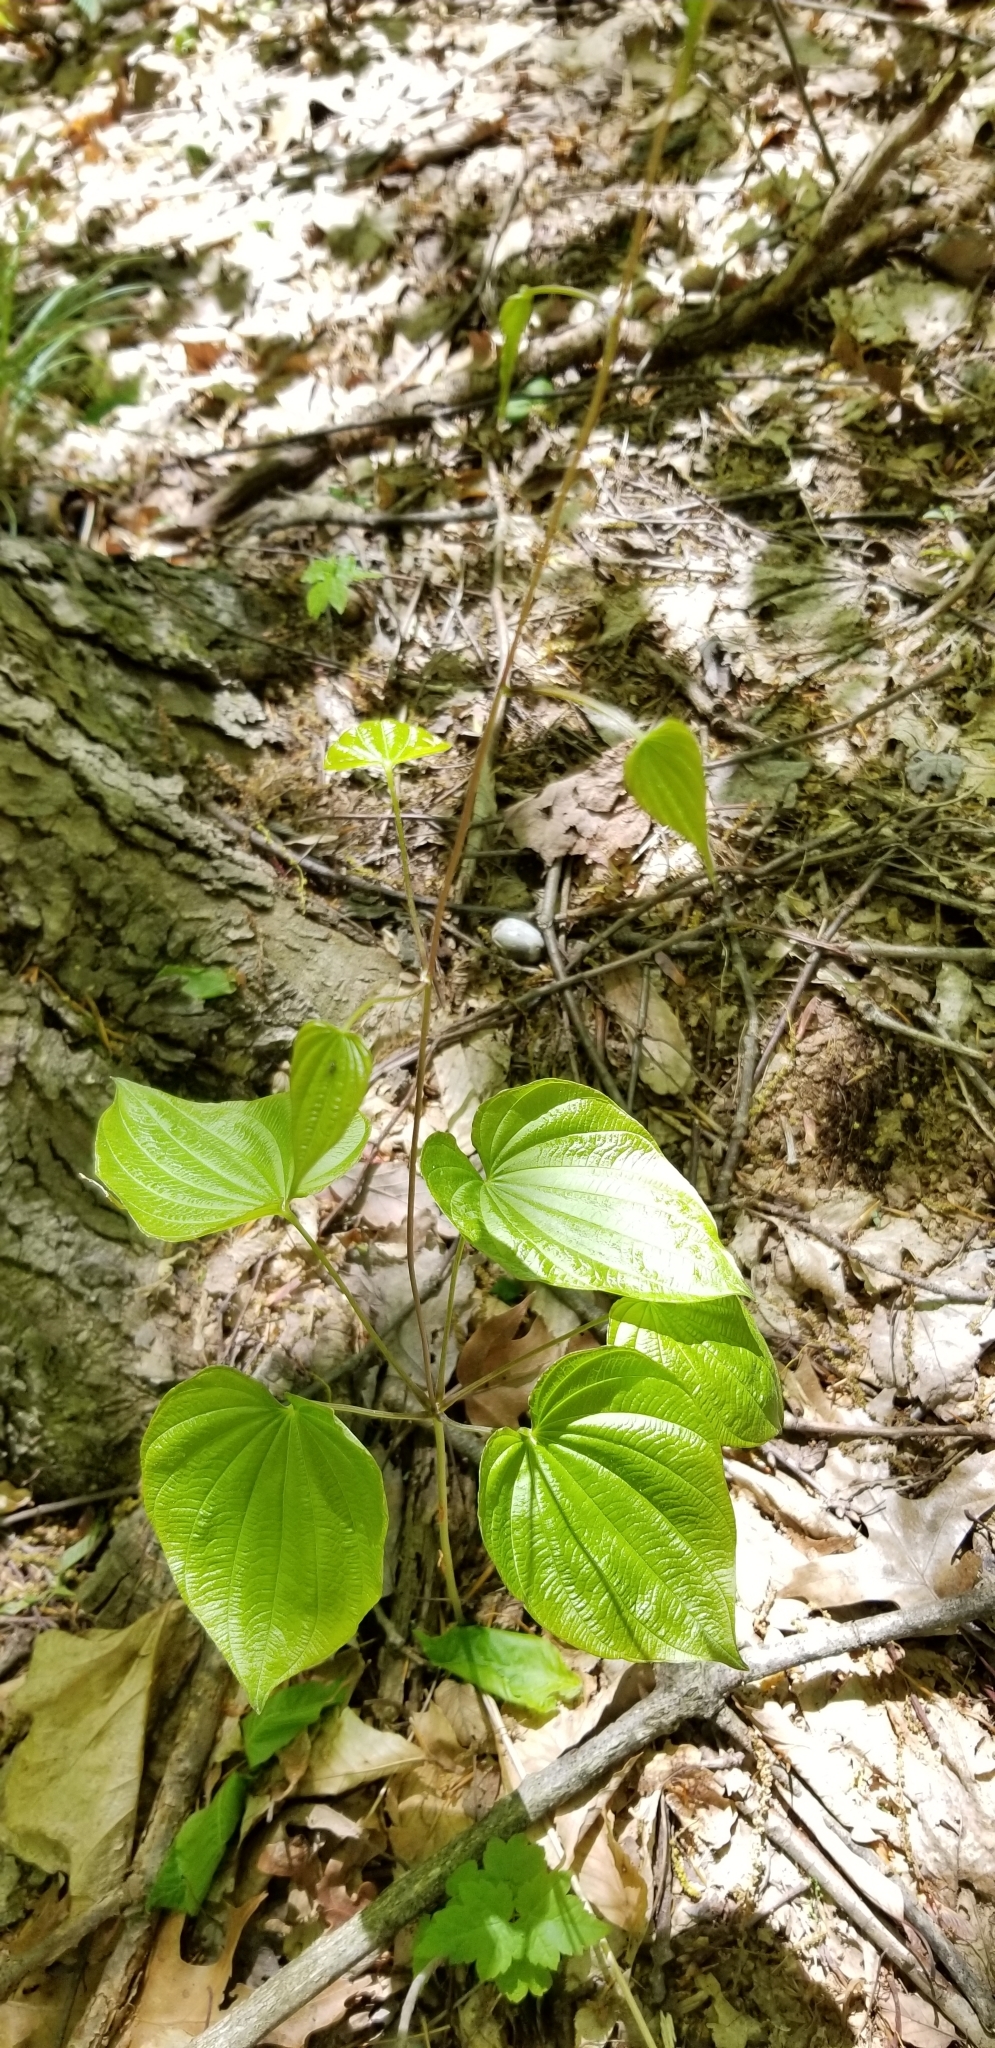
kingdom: Plantae
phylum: Tracheophyta
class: Liliopsida
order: Dioscoreales
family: Dioscoreaceae
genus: Dioscorea
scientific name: Dioscorea villosa
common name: Wild yam
